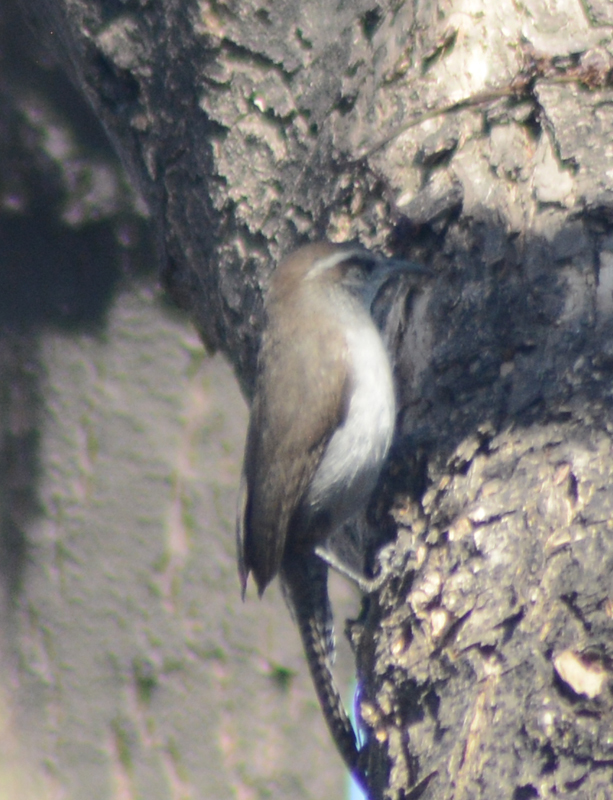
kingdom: Animalia
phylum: Chordata
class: Aves
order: Passeriformes
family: Troglodytidae
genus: Thryomanes
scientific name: Thryomanes bewickii
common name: Bewick's wren
